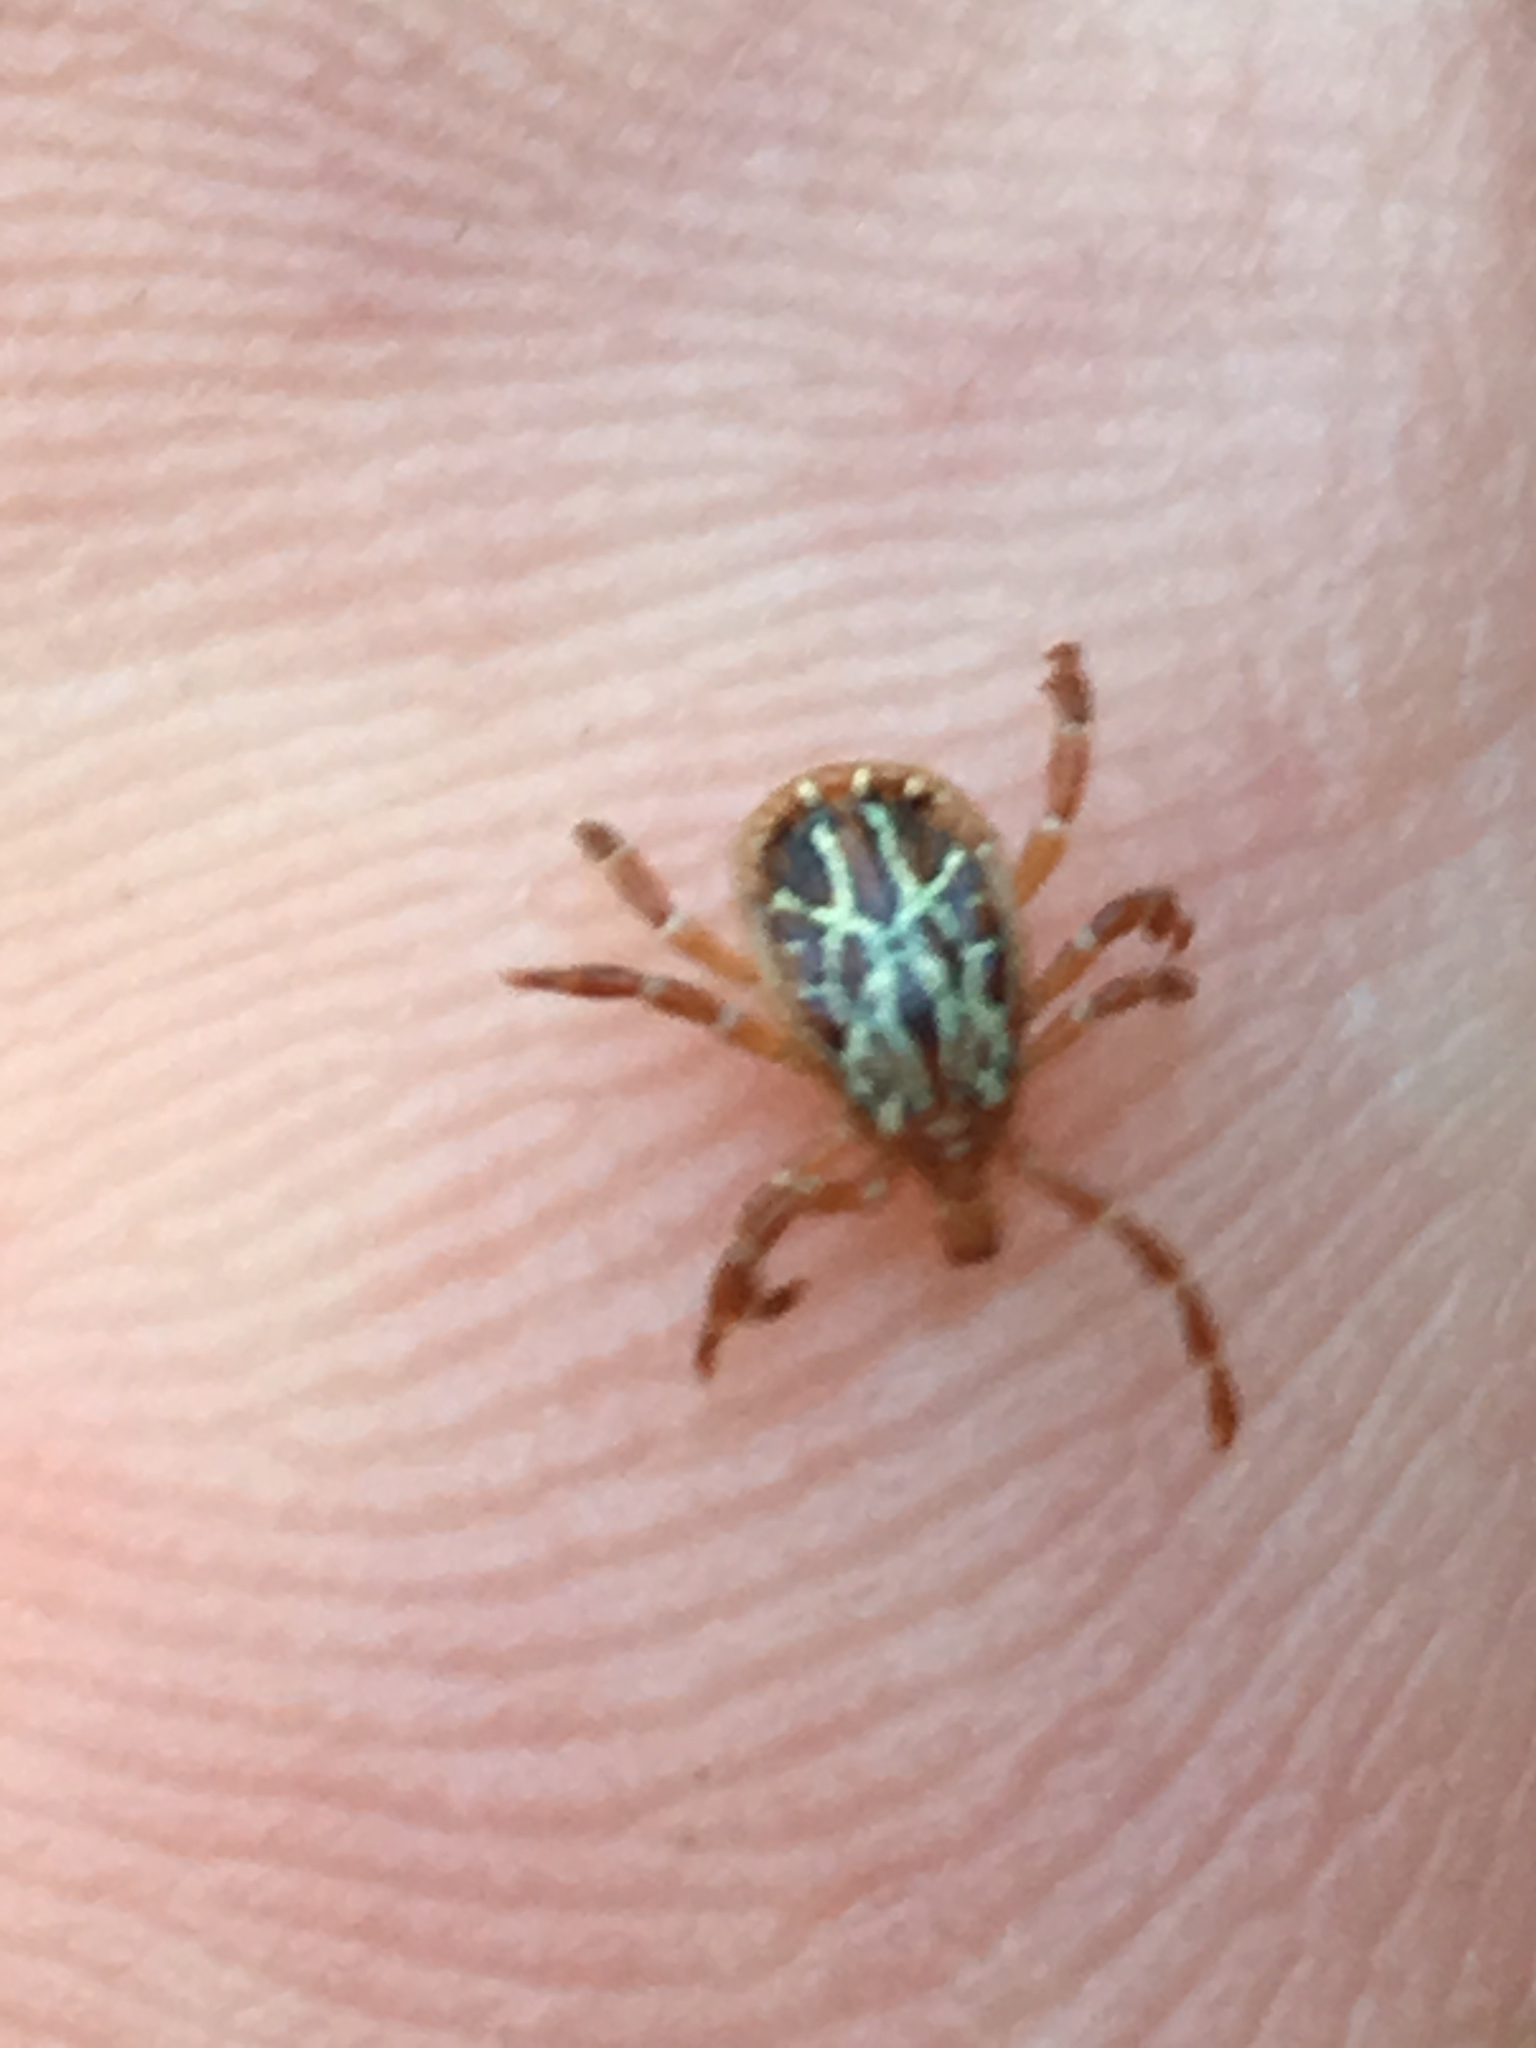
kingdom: Animalia
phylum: Arthropoda
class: Arachnida
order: Ixodida
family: Ixodidae
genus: Amblyomma
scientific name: Amblyomma maculatum
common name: Gulf coast tick
